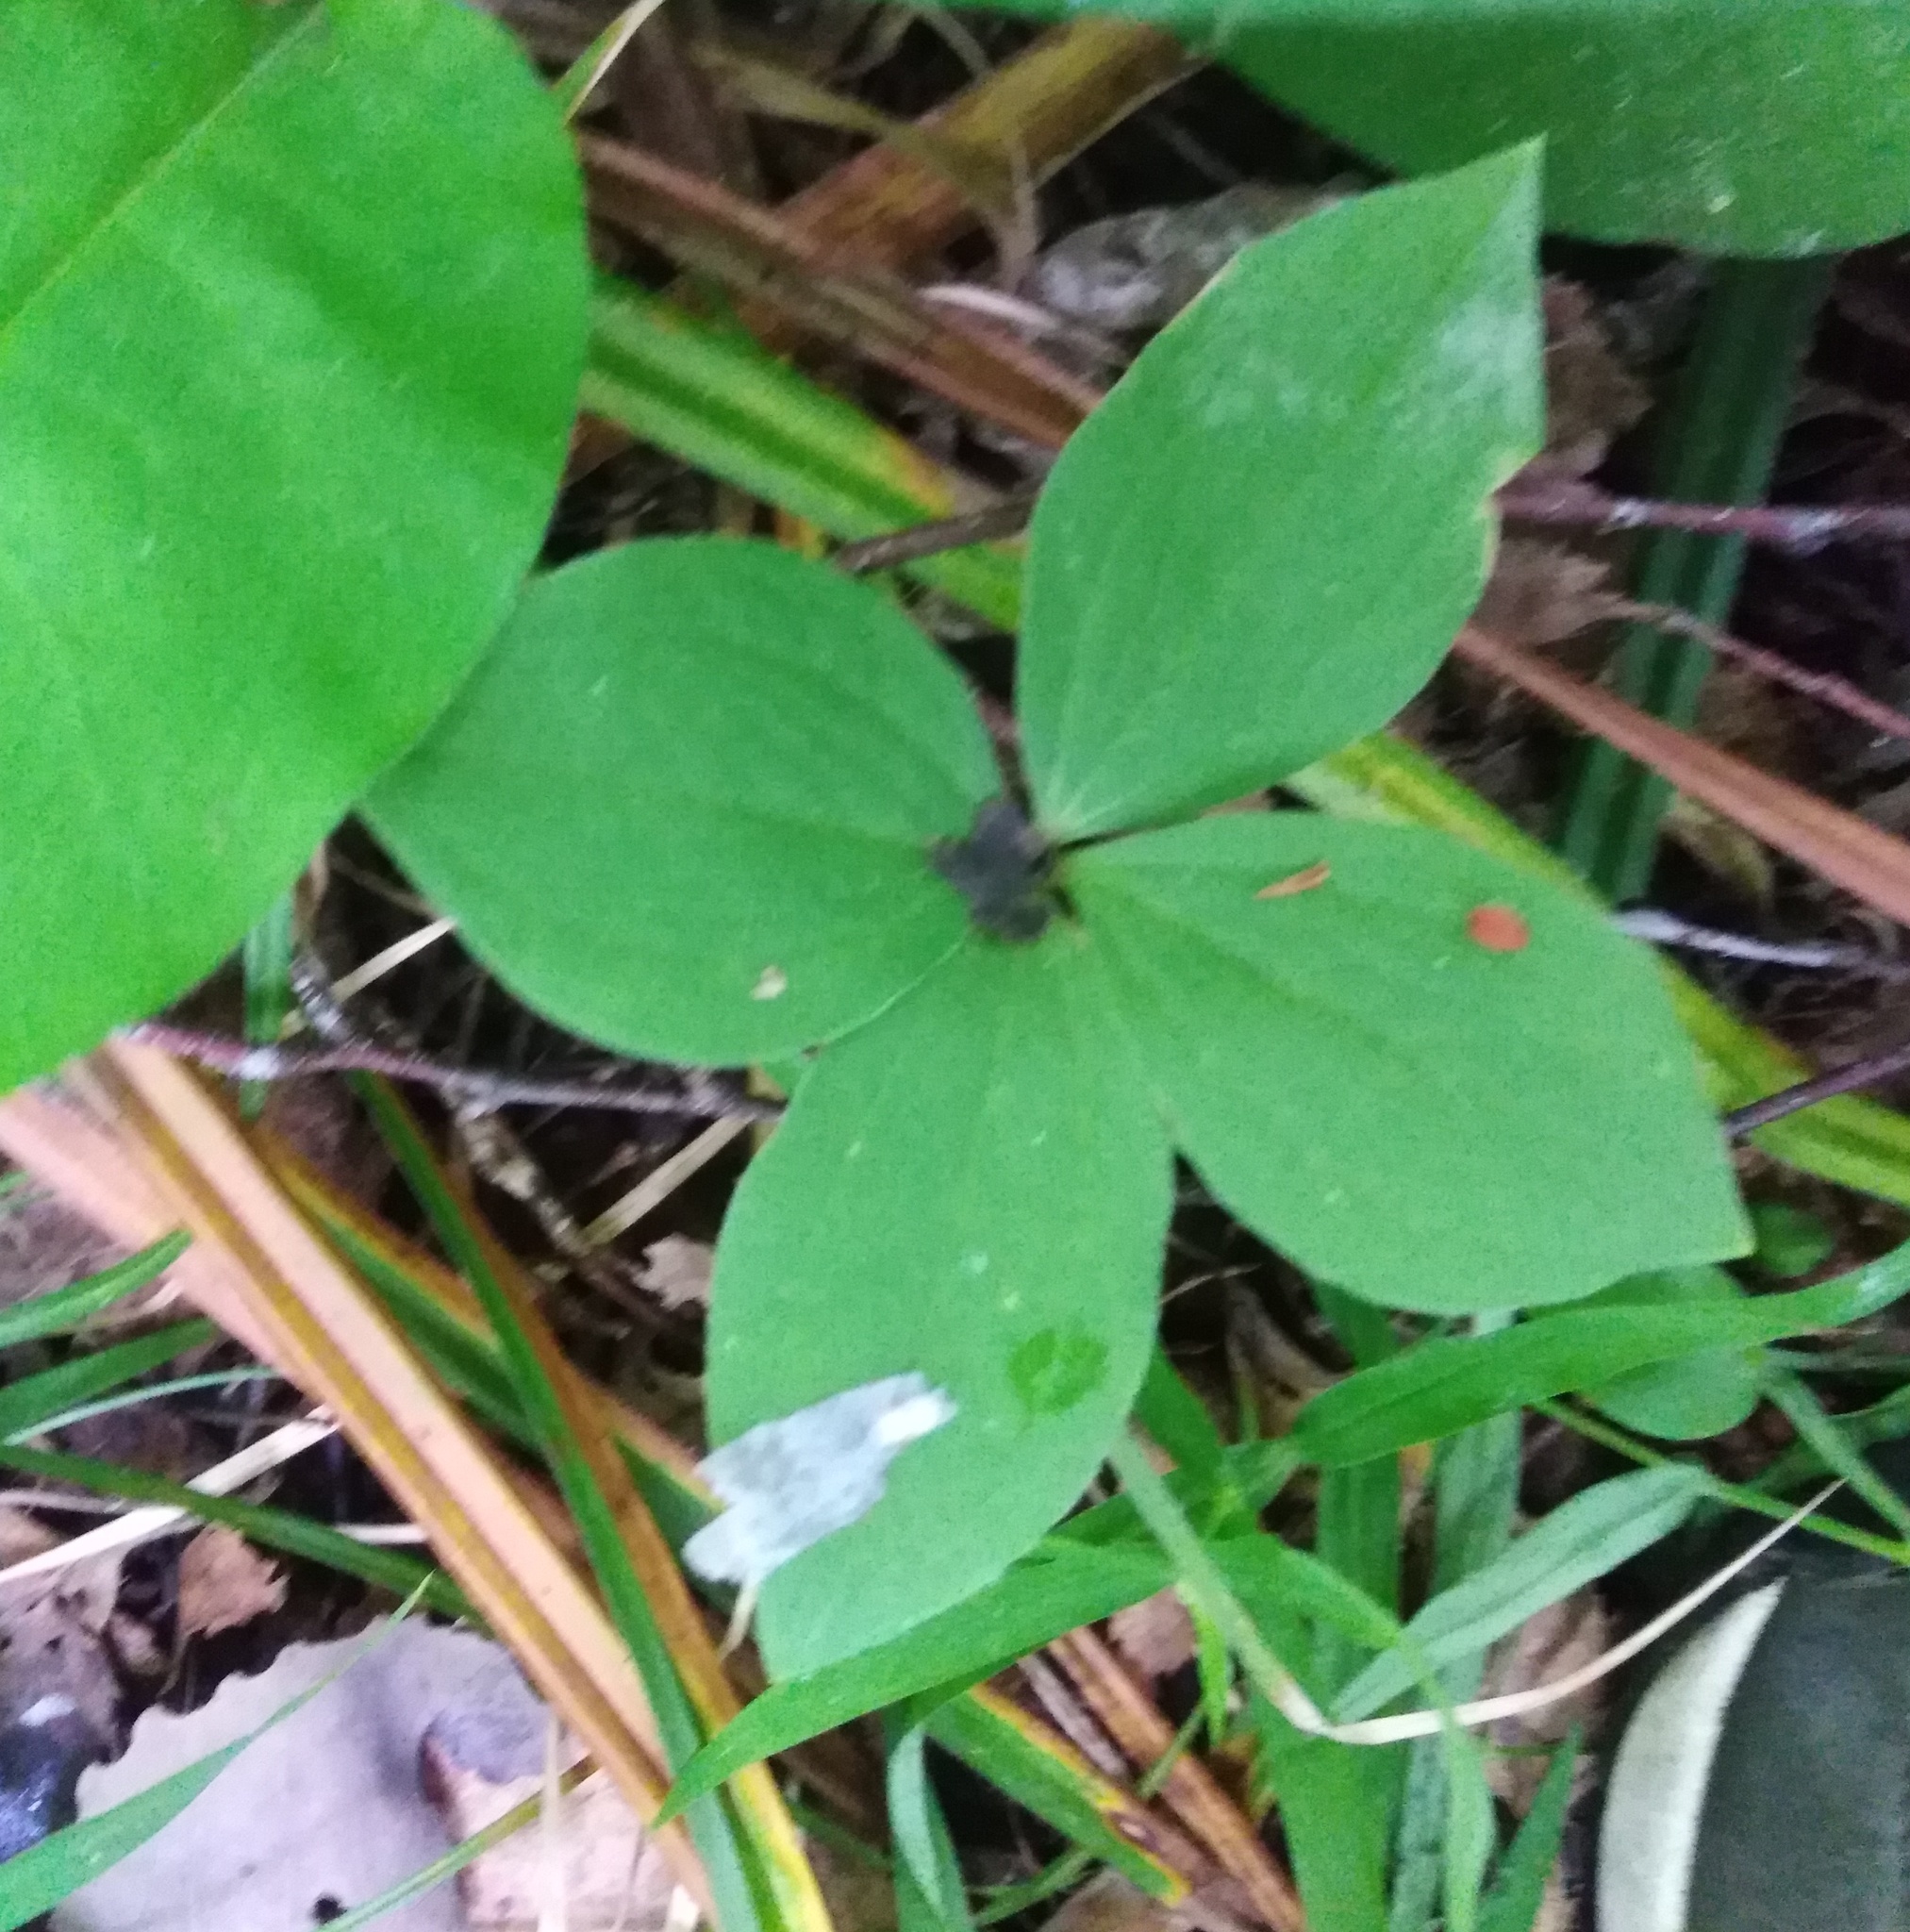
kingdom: Plantae
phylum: Tracheophyta
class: Liliopsida
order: Liliales
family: Melanthiaceae
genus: Paris
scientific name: Paris quadrifolia
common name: Herb-paris
